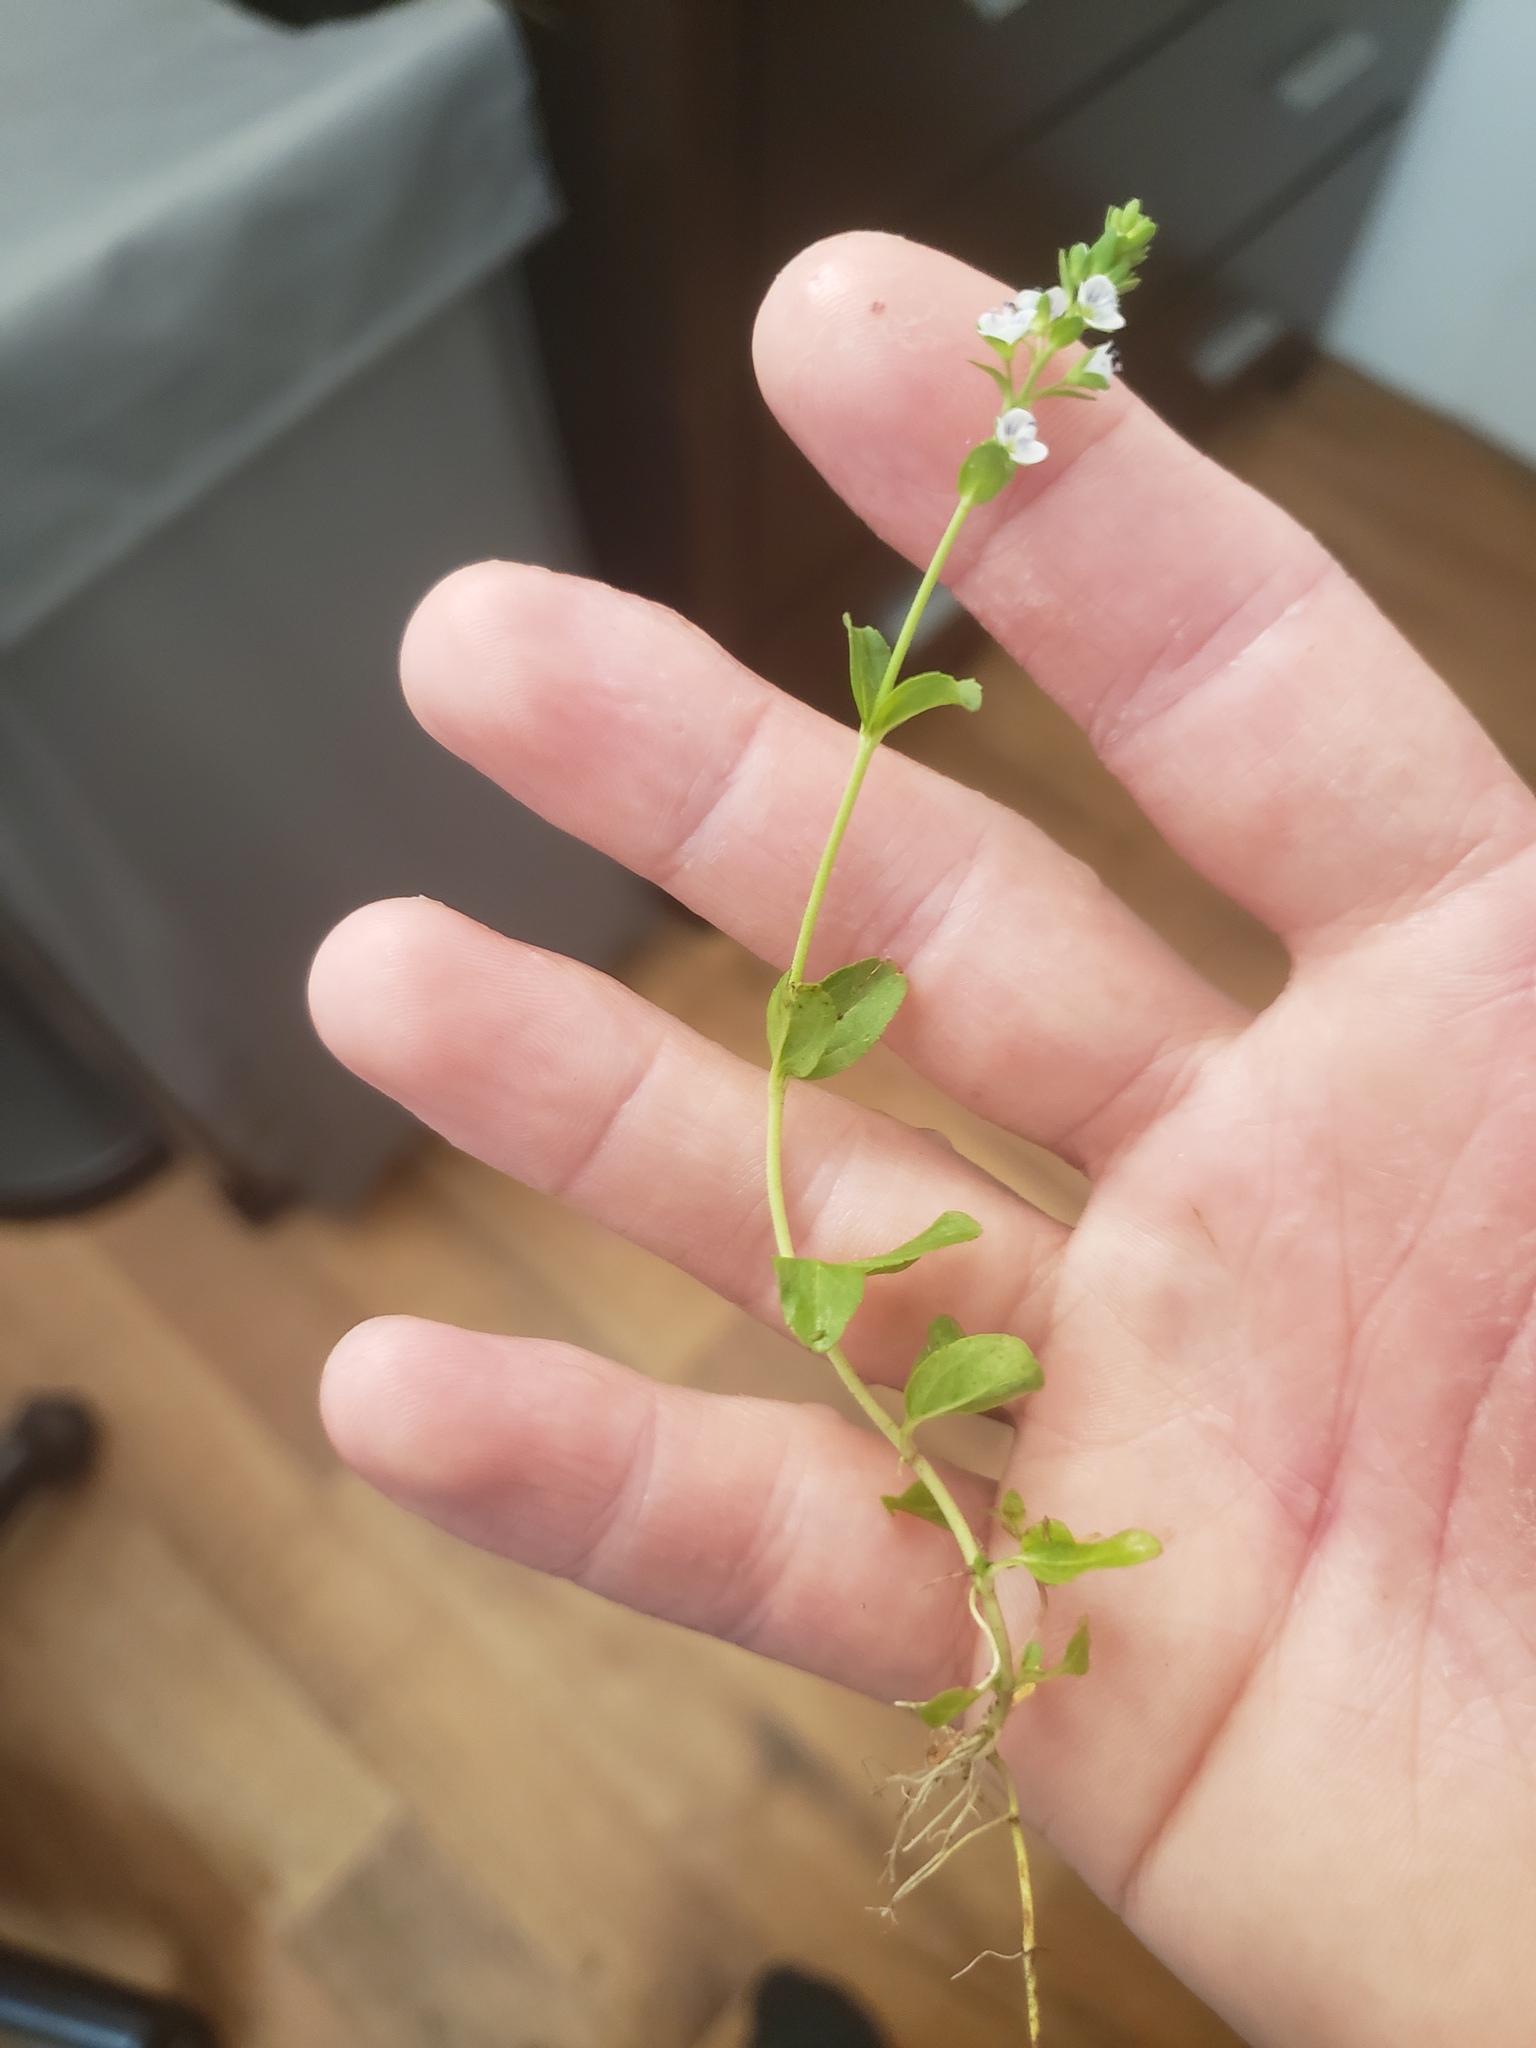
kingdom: Plantae
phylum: Tracheophyta
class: Magnoliopsida
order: Lamiales
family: Plantaginaceae
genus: Veronica
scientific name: Veronica serpyllifolia
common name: Thyme-leaved speedwell
